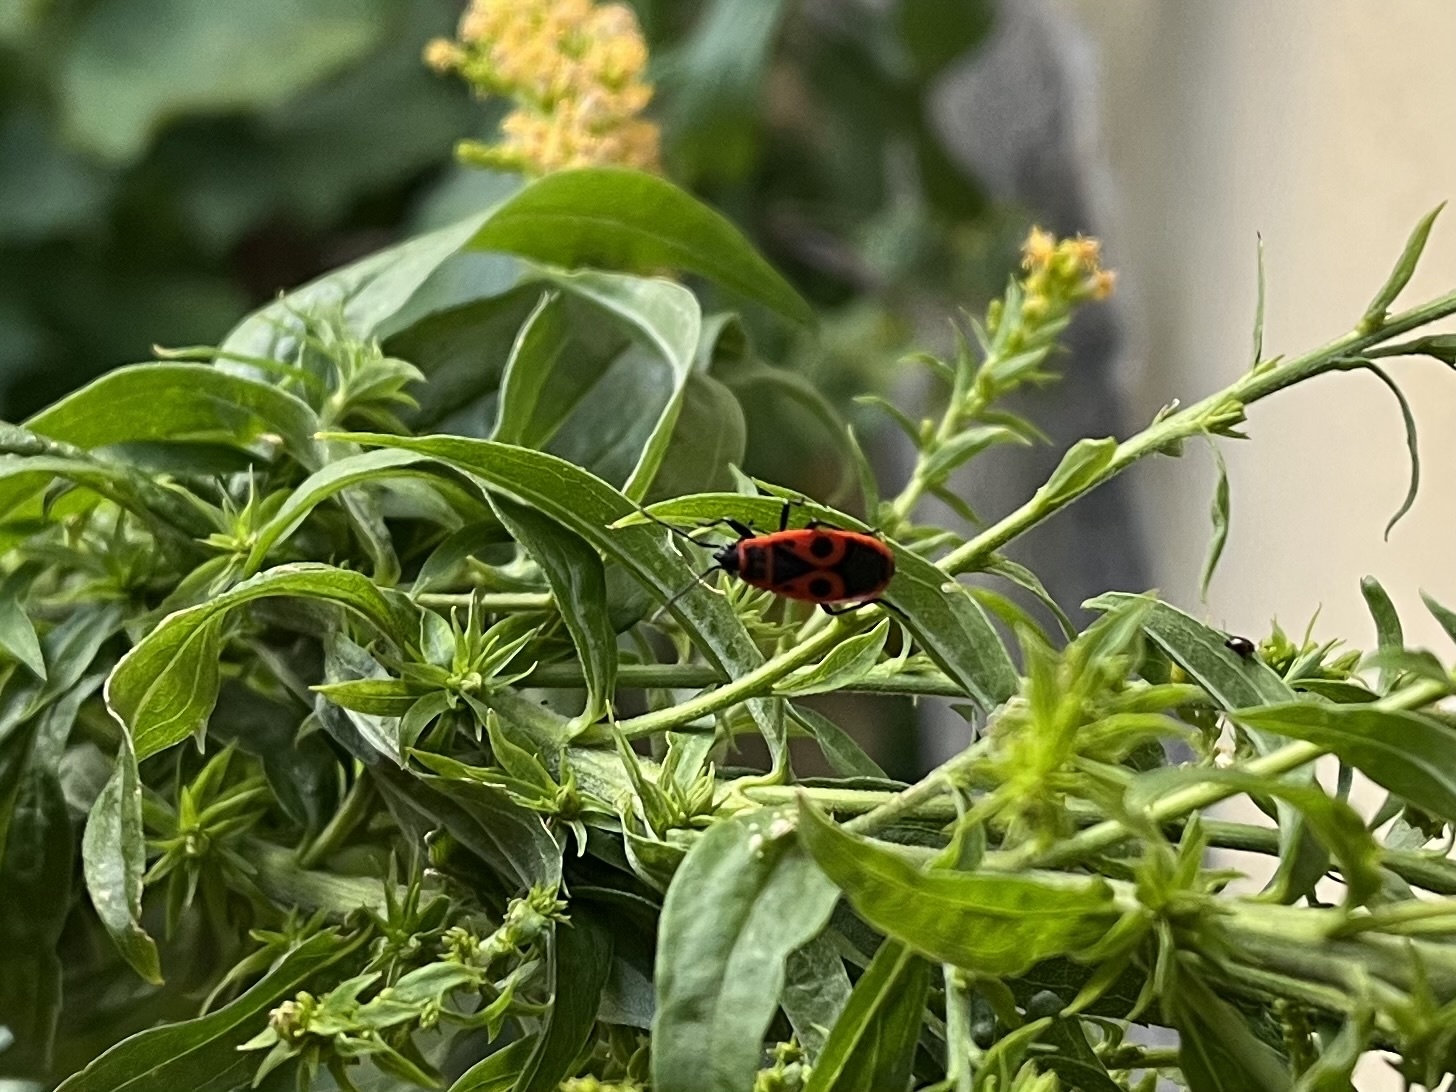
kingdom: Animalia
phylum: Arthropoda
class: Insecta
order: Hemiptera
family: Pyrrhocoridae
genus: Pyrrhocoris
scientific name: Pyrrhocoris apterus
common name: Firebug
